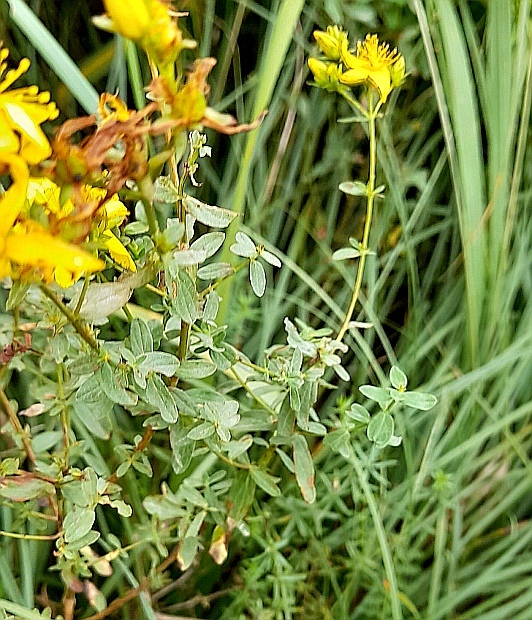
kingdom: Plantae
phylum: Tracheophyta
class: Magnoliopsida
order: Malpighiales
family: Hypericaceae
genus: Hypericum
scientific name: Hypericum perforatum
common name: Common st. johnswort
